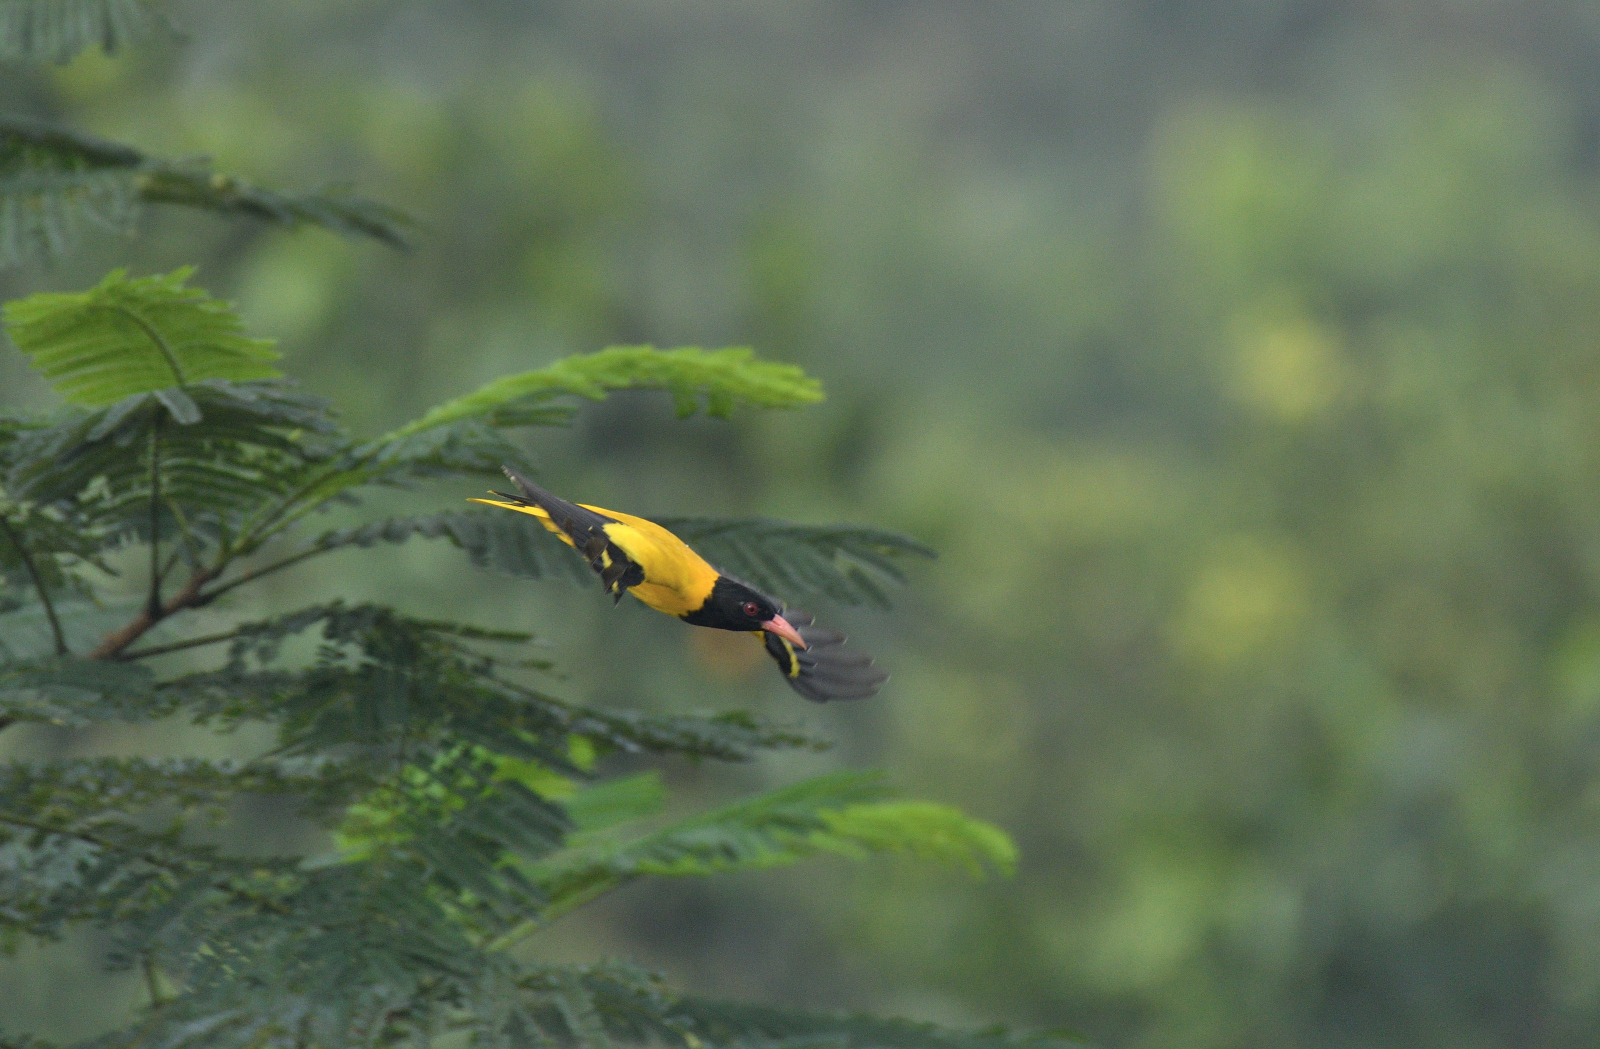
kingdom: Animalia
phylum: Chordata
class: Aves
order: Passeriformes
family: Oriolidae
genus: Oriolus
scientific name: Oriolus xanthornus
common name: Black-hooded oriole
